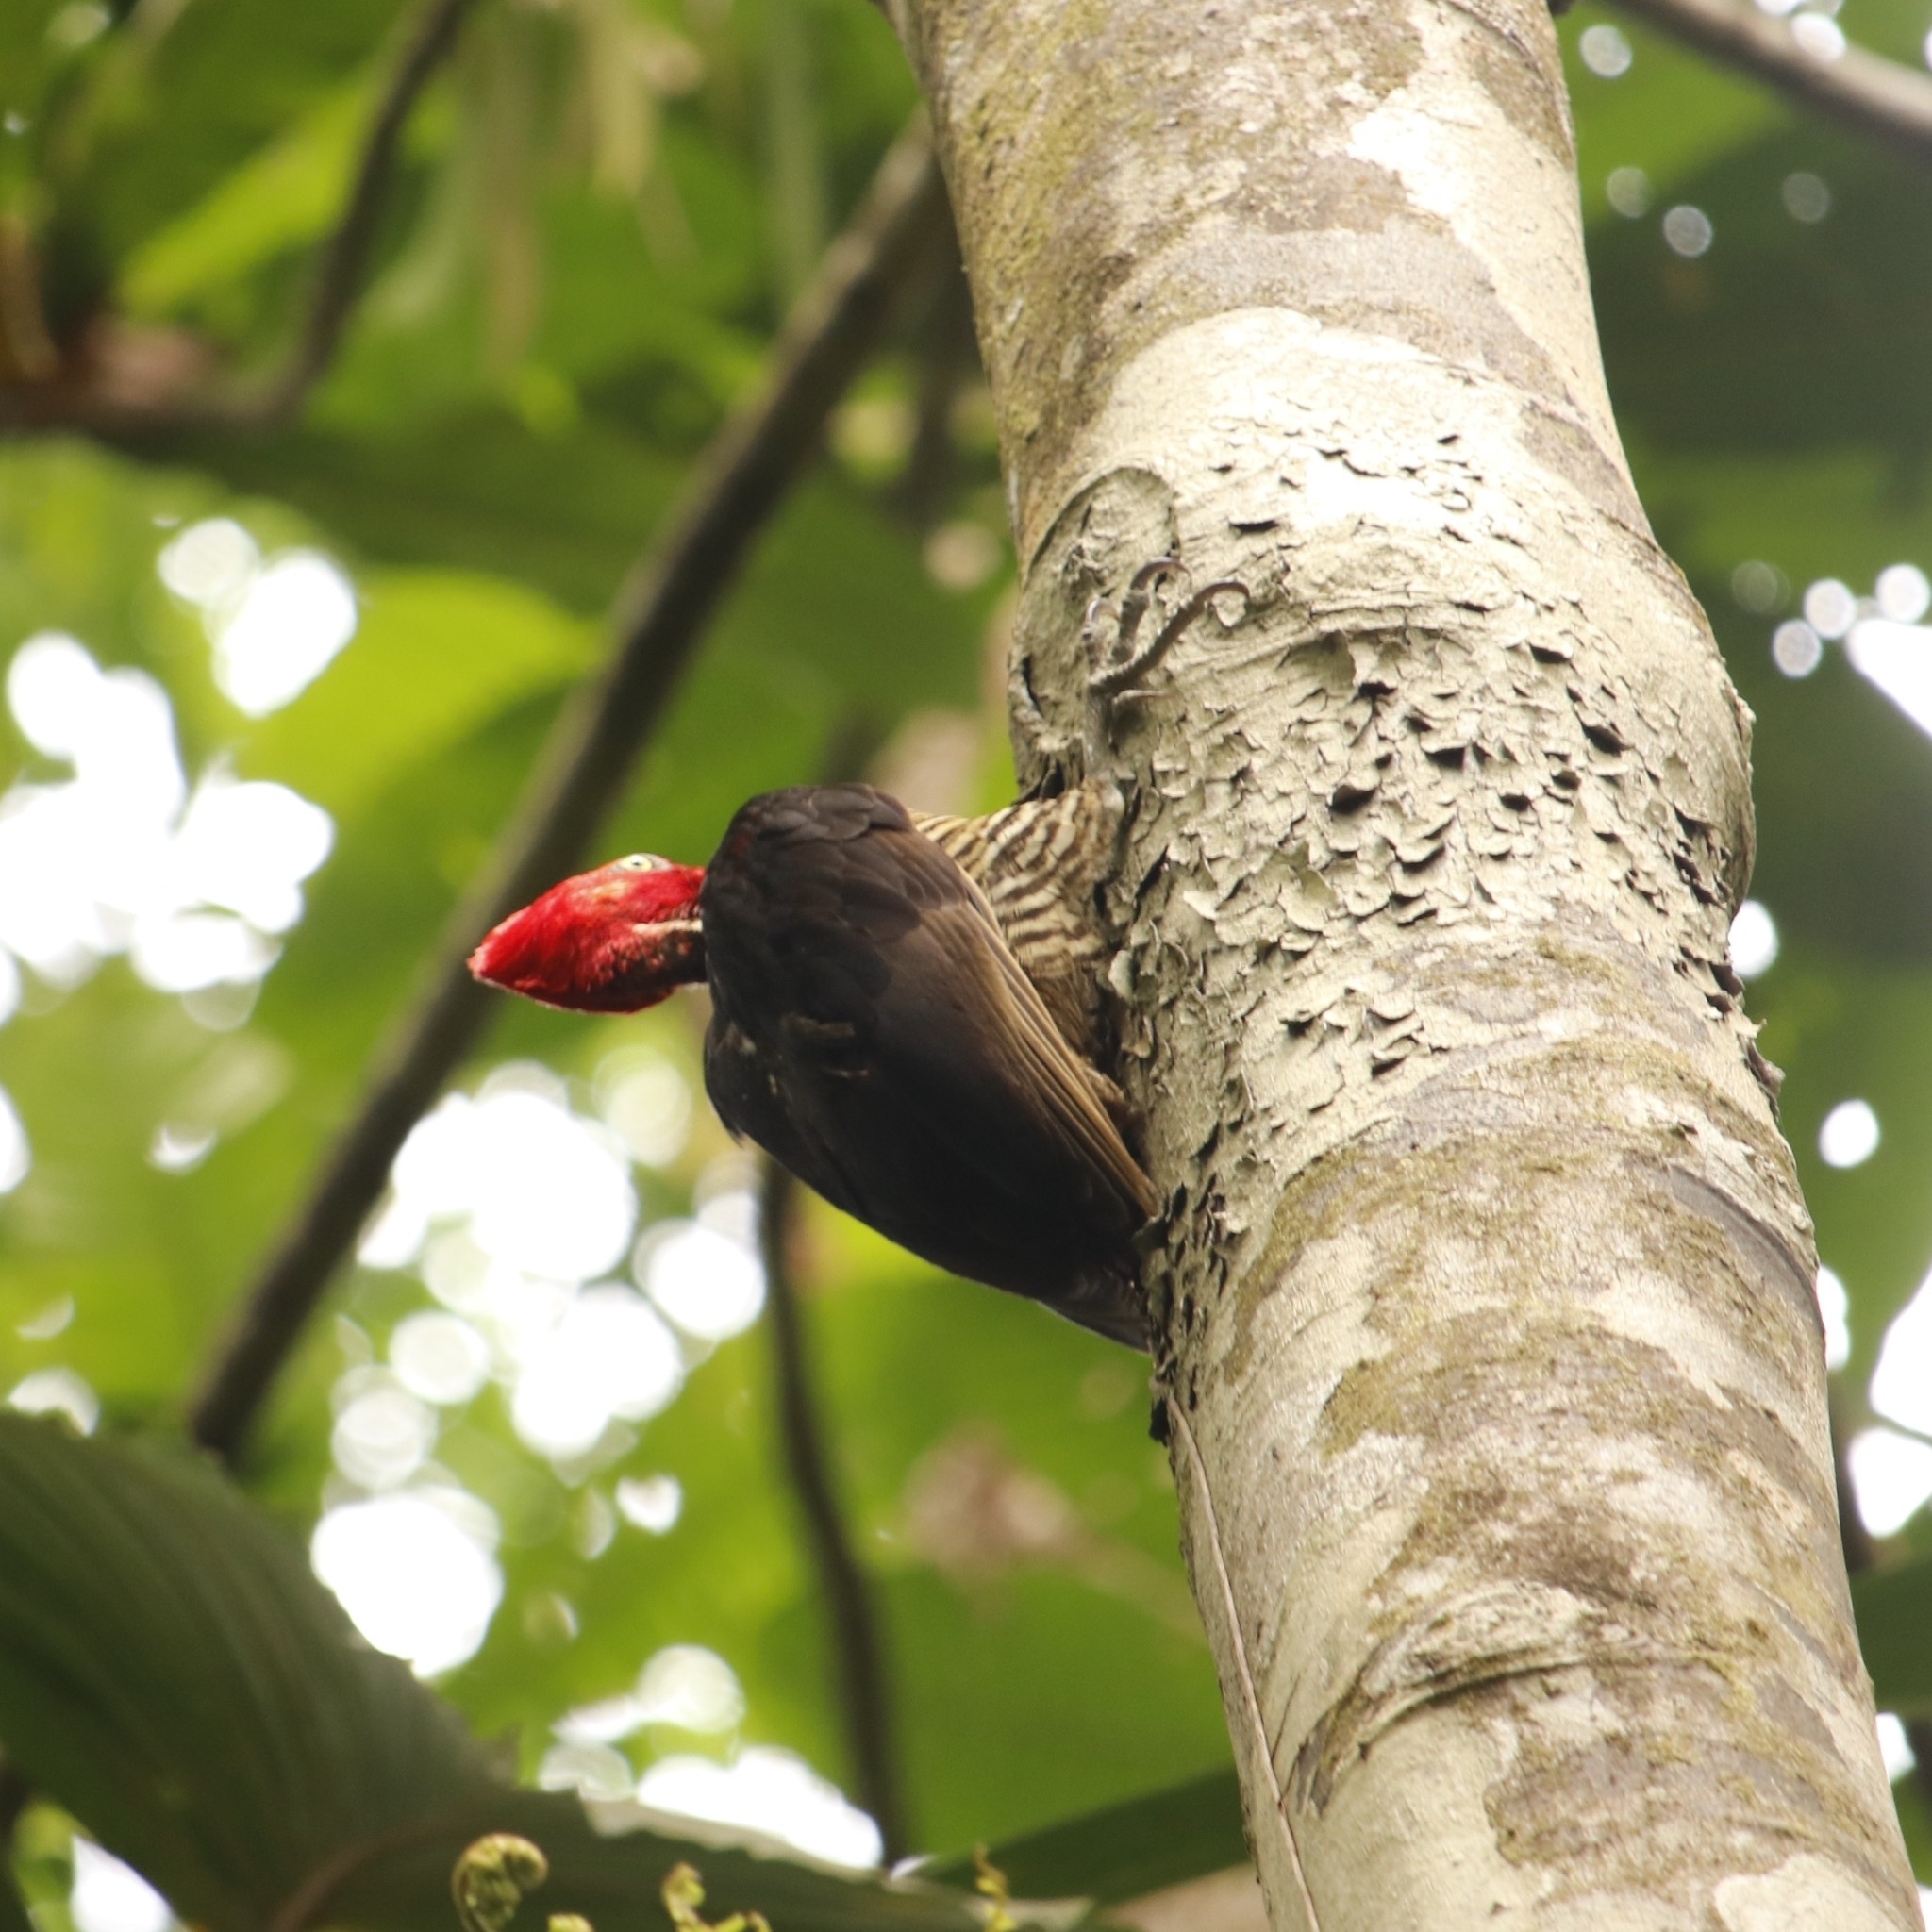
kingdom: Animalia
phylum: Chordata
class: Aves
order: Piciformes
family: Picidae
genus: Campephilus
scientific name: Campephilus guatemalensis
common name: Pale-billed woodpecker
